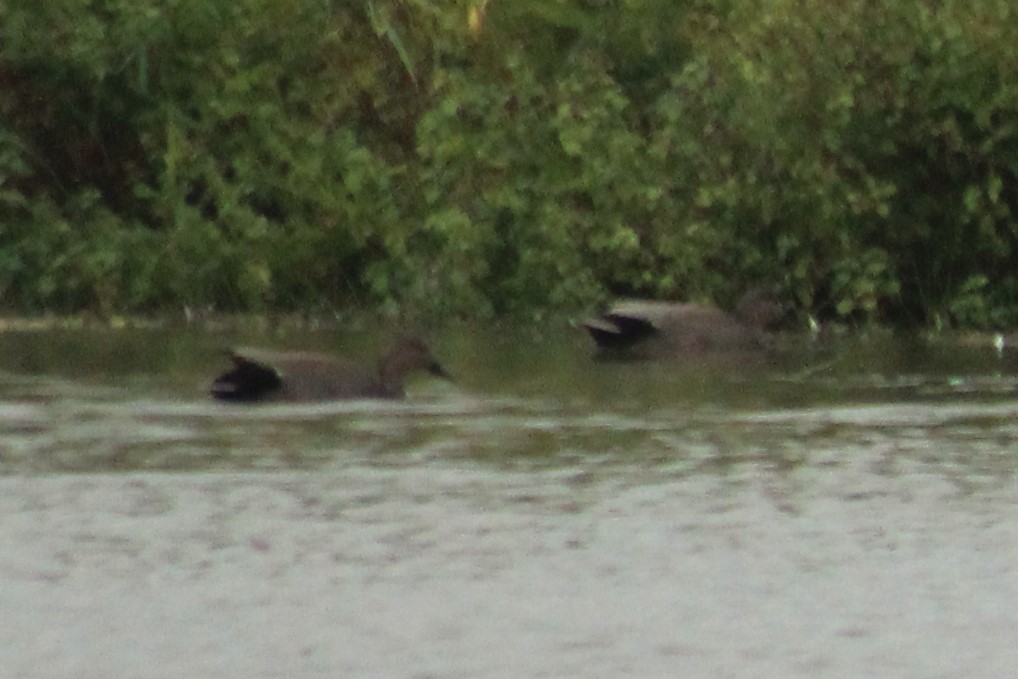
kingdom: Animalia
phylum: Chordata
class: Aves
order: Anseriformes
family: Anatidae
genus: Mareca
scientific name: Mareca strepera
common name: Gadwall
